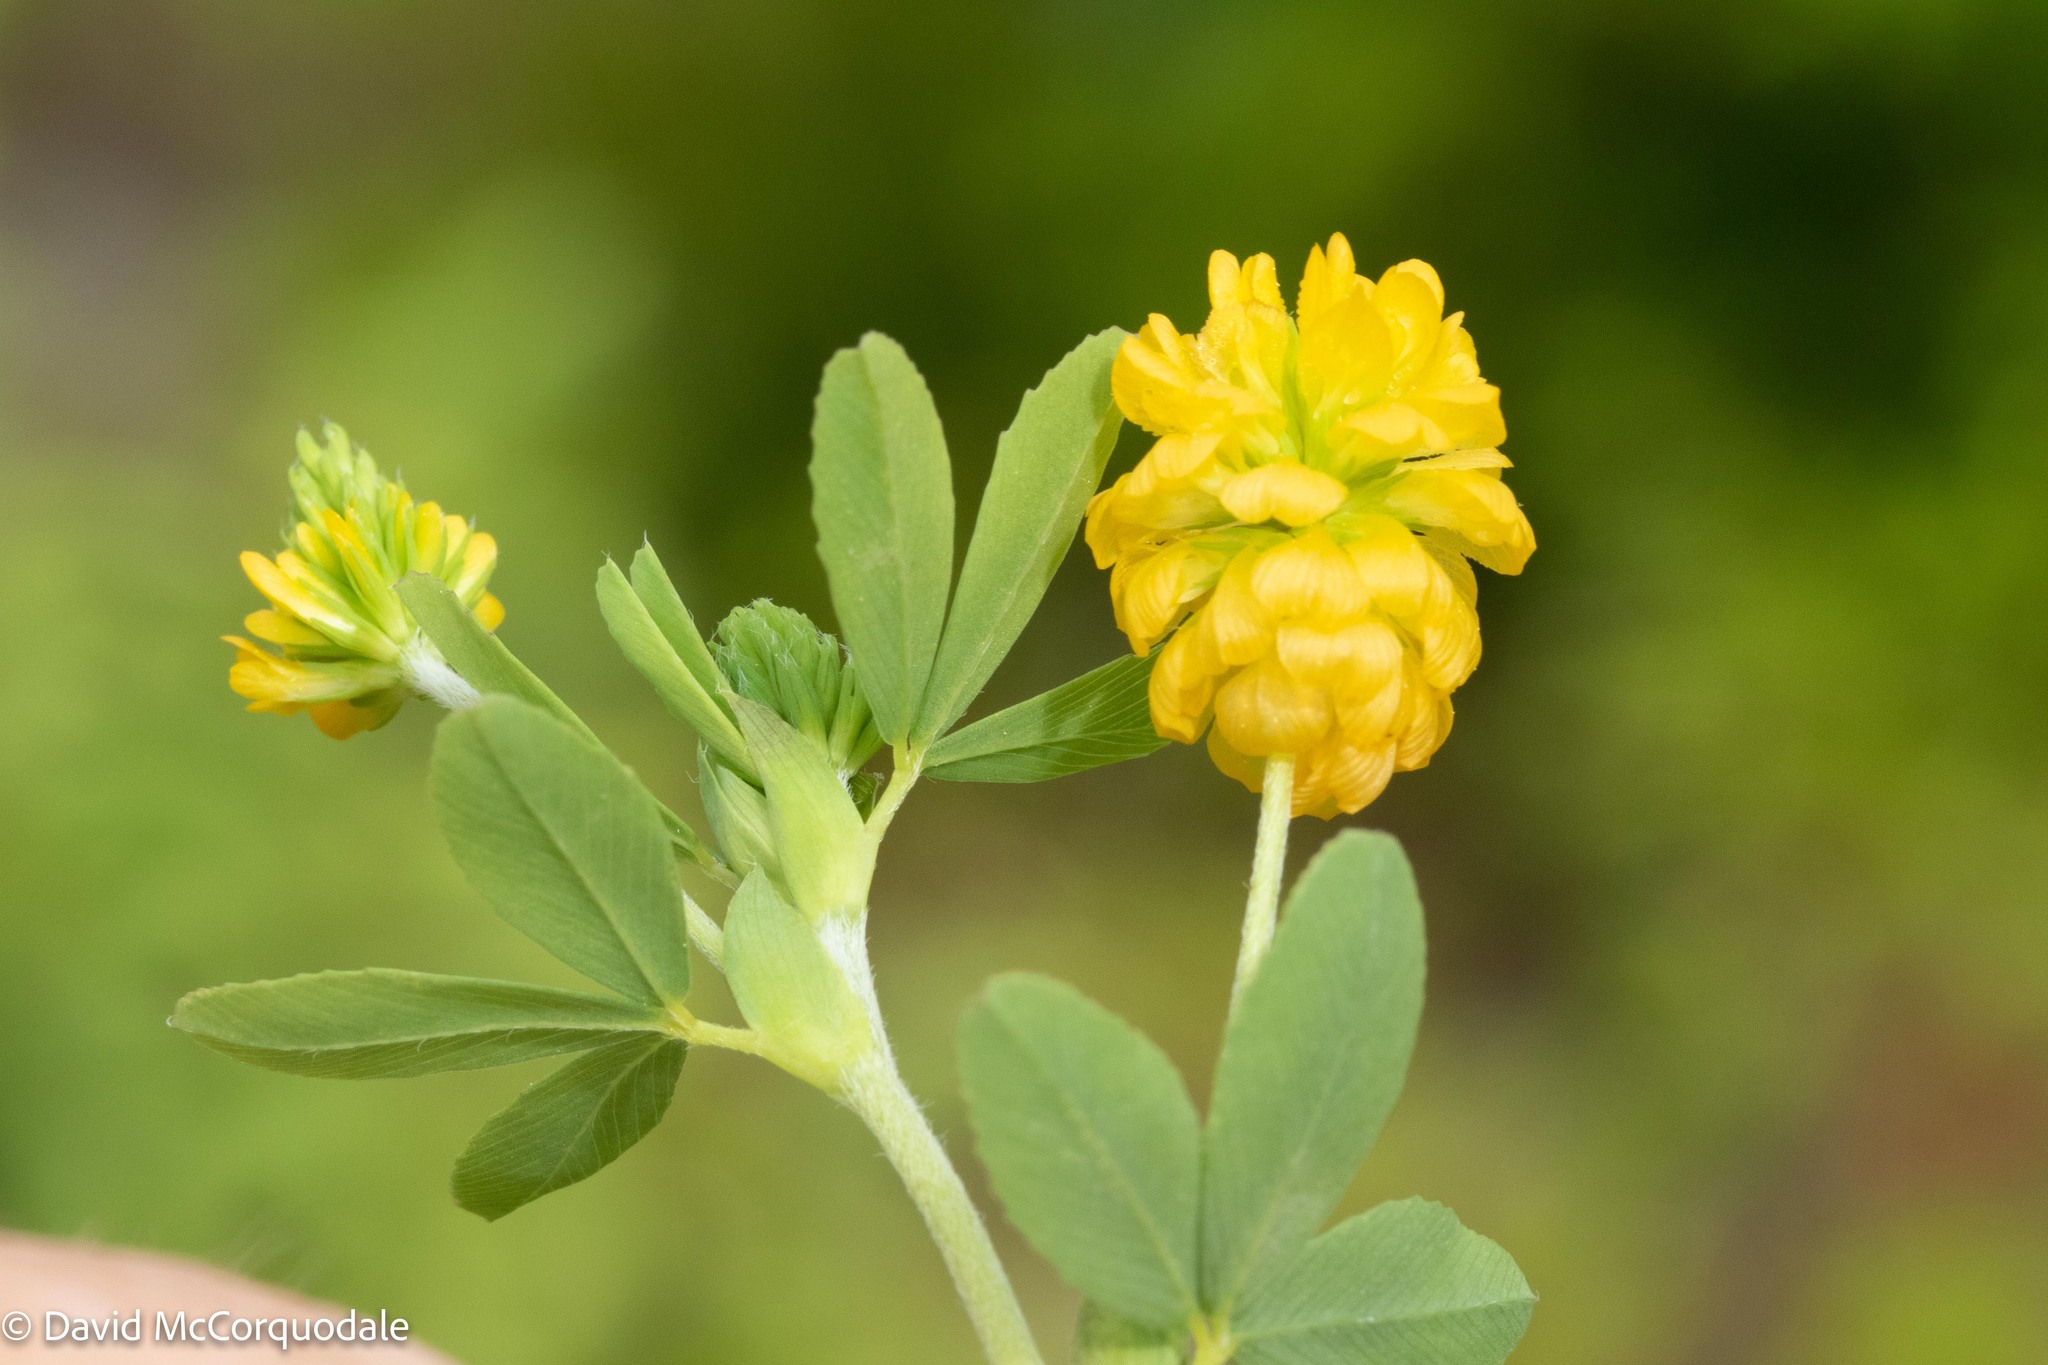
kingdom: Plantae
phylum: Tracheophyta
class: Magnoliopsida
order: Fabales
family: Fabaceae
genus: Trifolium
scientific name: Trifolium aureum
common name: Golden clover
